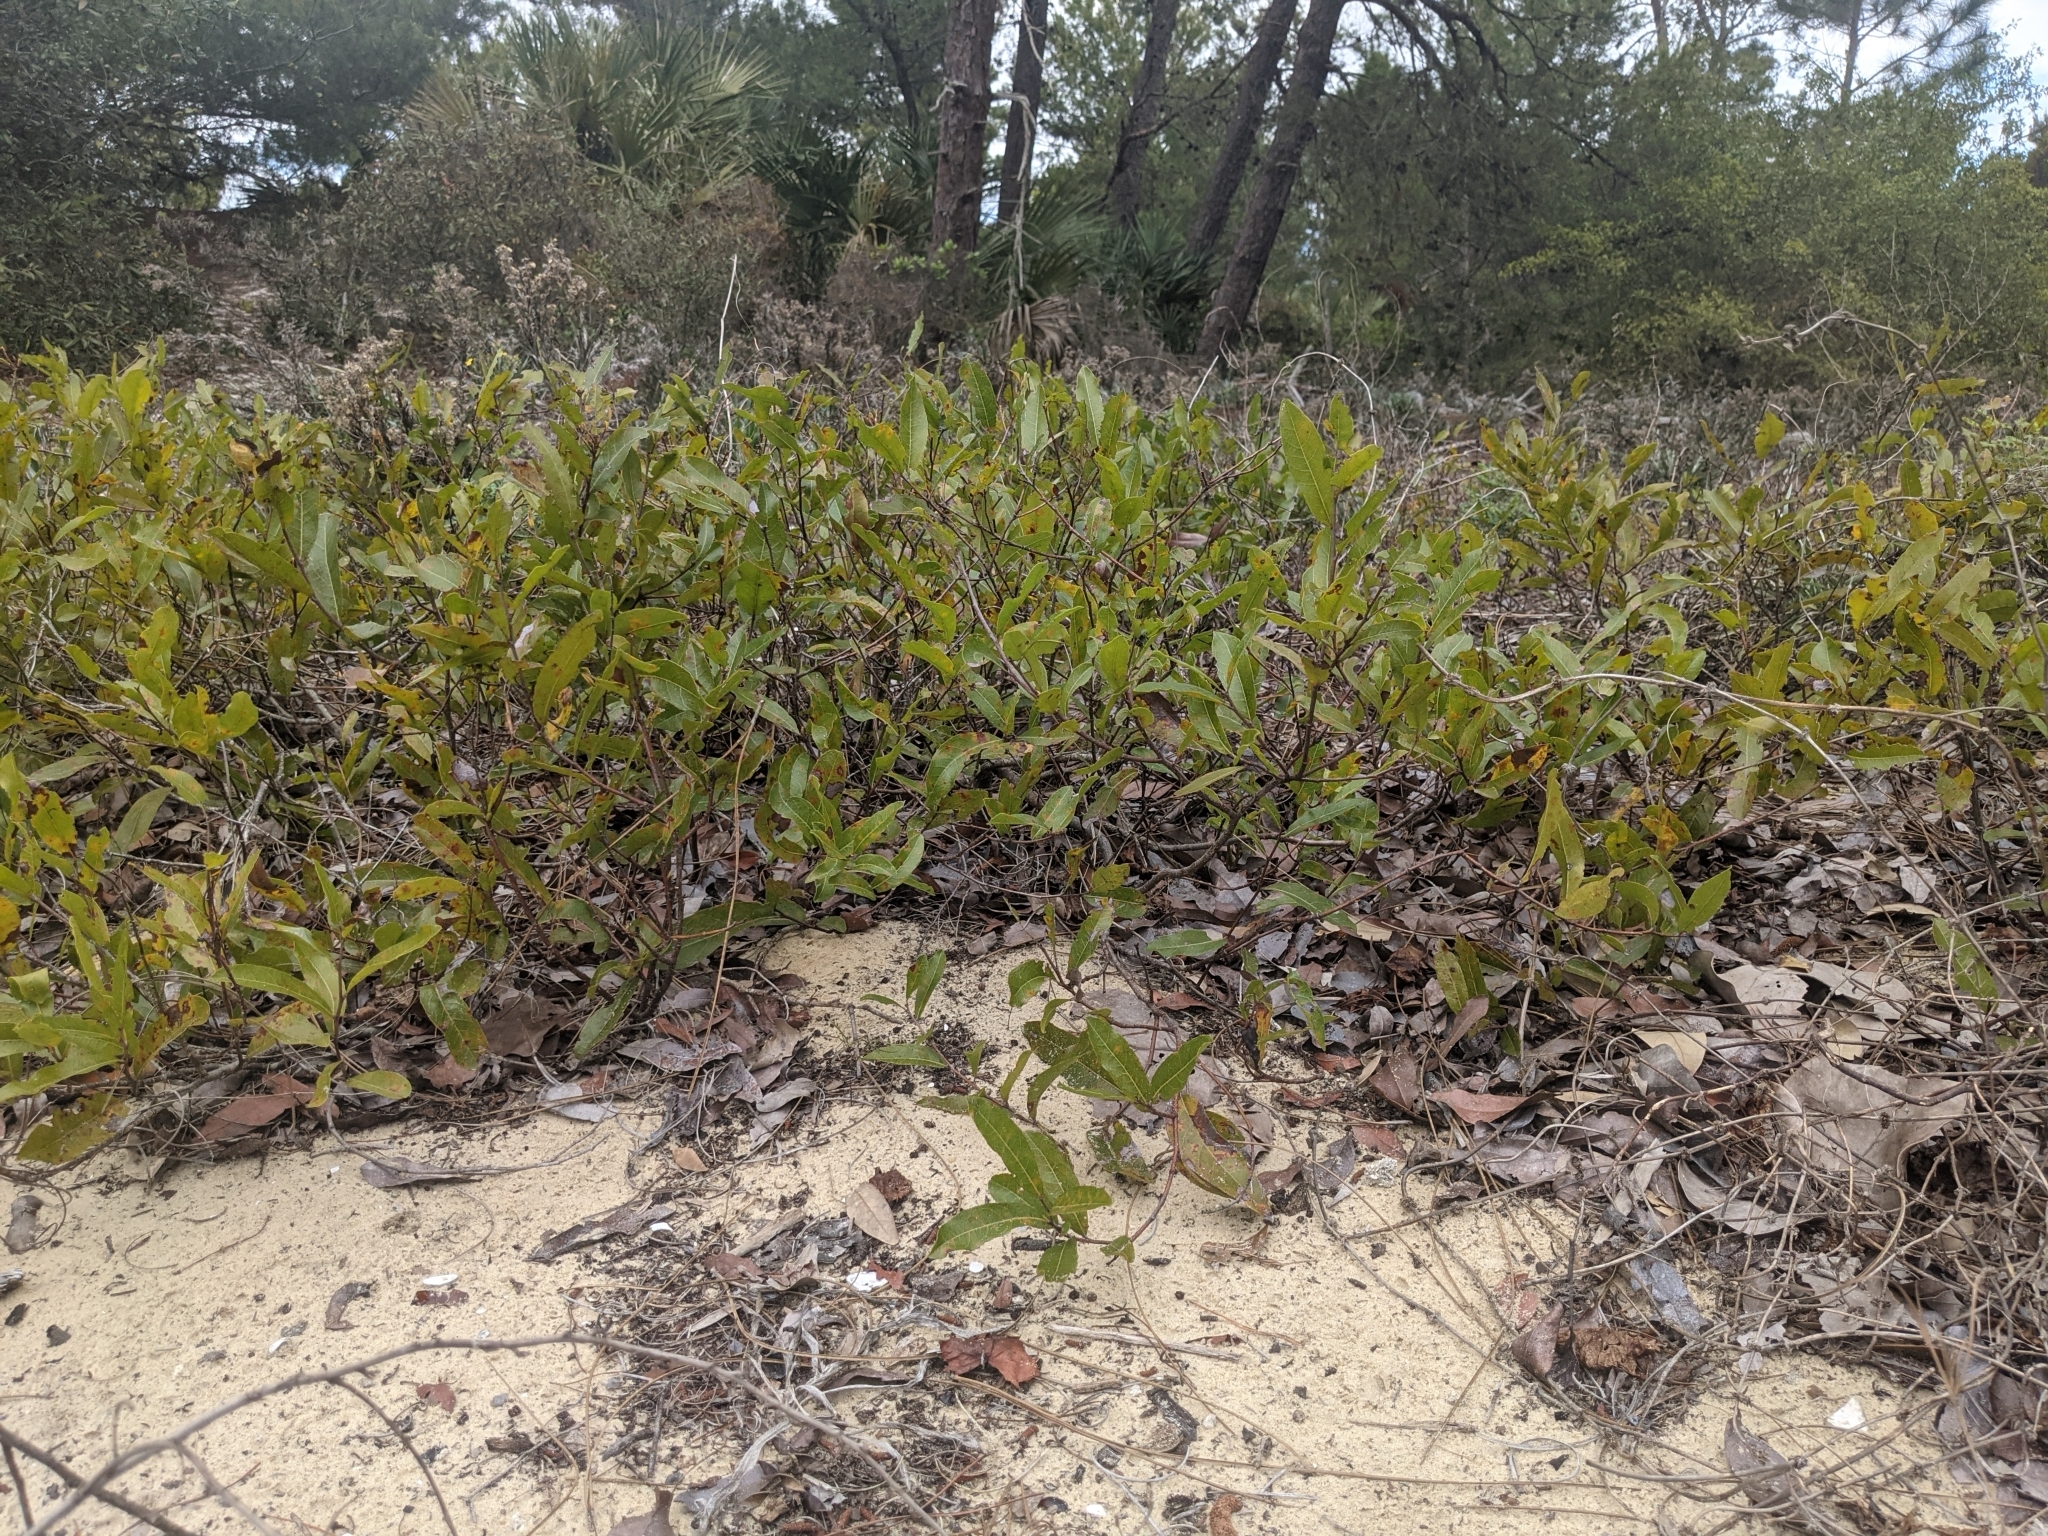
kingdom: Plantae
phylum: Tracheophyta
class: Magnoliopsida
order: Malpighiales
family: Chrysobalanaceae
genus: Geobalanus
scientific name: Geobalanus oblongifolius
